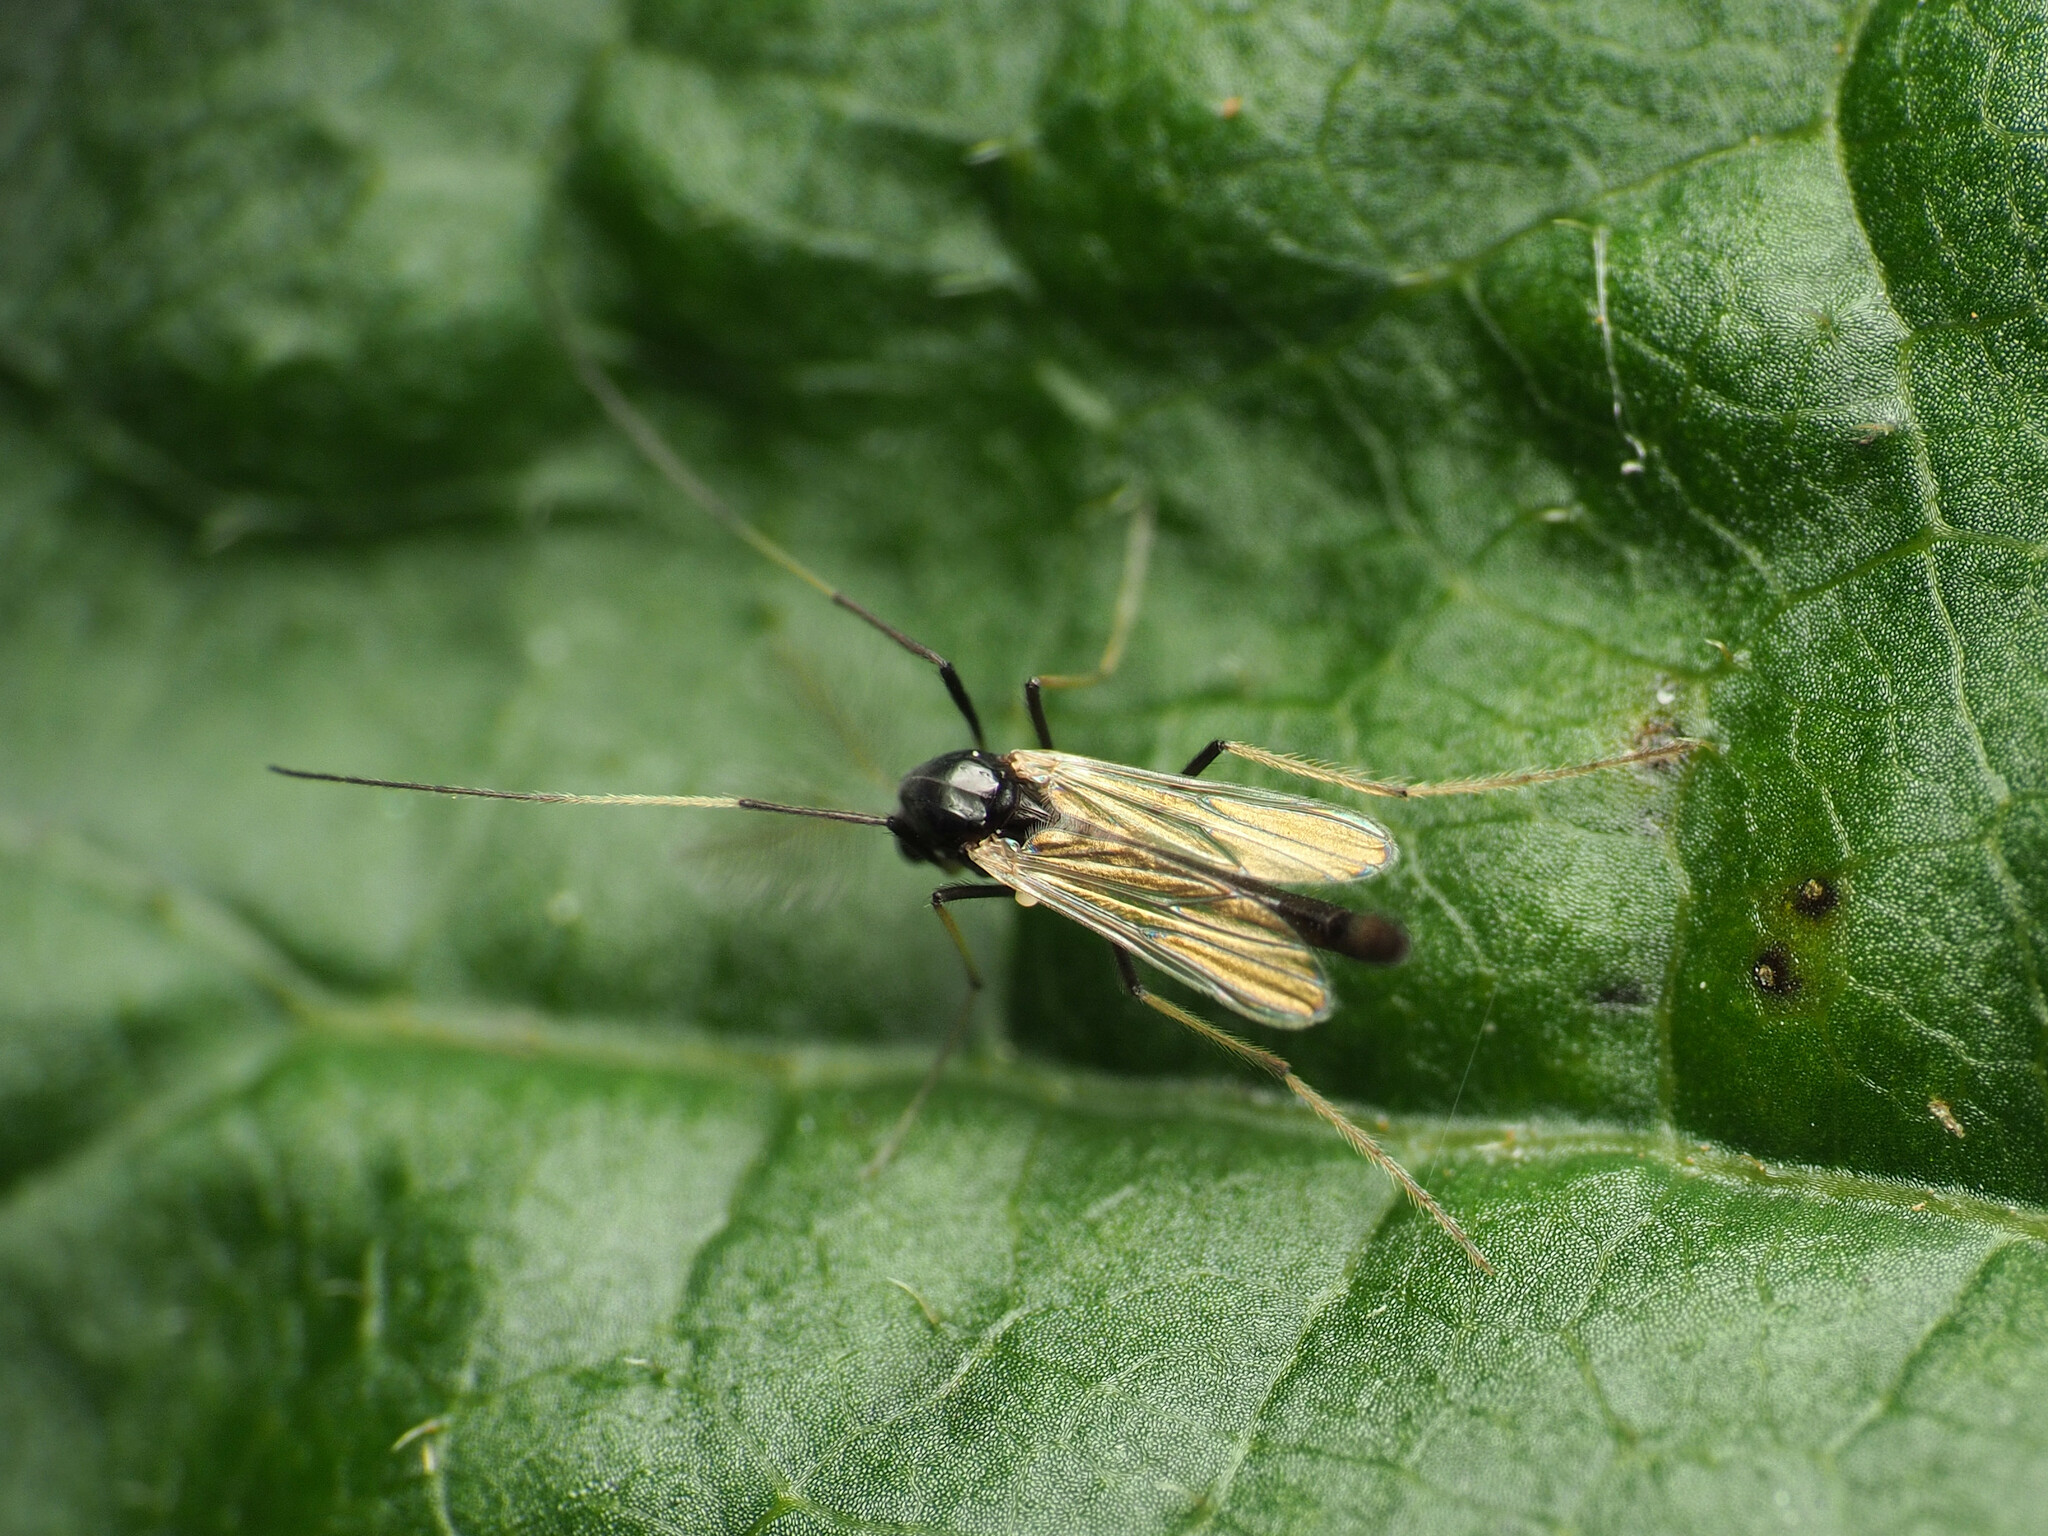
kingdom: Animalia
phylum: Arthropoda
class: Insecta
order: Diptera
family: Chironomidae
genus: Paratendipes
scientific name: Paratendipes albimanus
